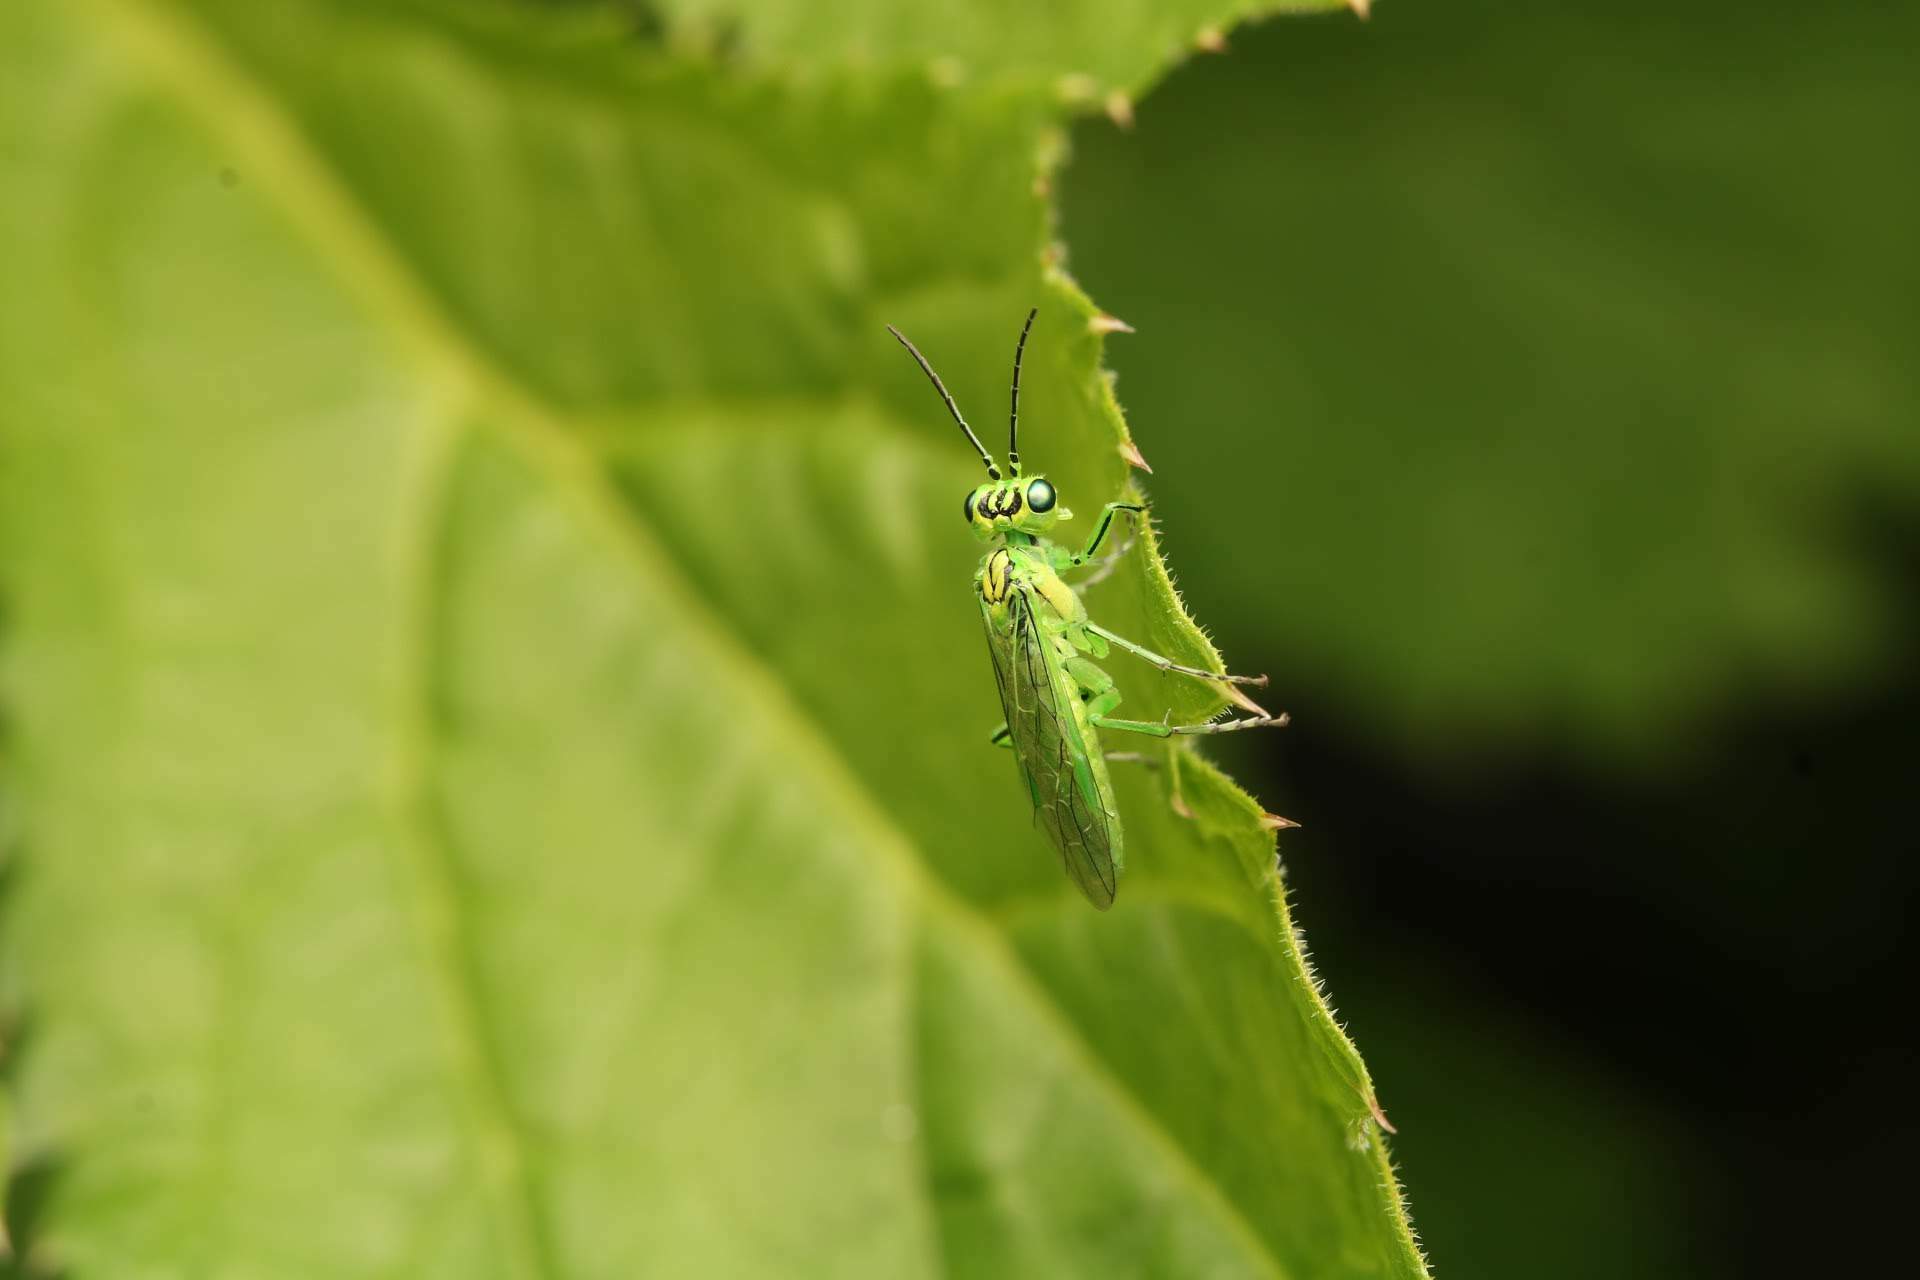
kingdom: Animalia
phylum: Arthropoda
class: Insecta
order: Hymenoptera
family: Tenthredinidae
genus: Rhogogaster
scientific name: Rhogogaster punctulata
